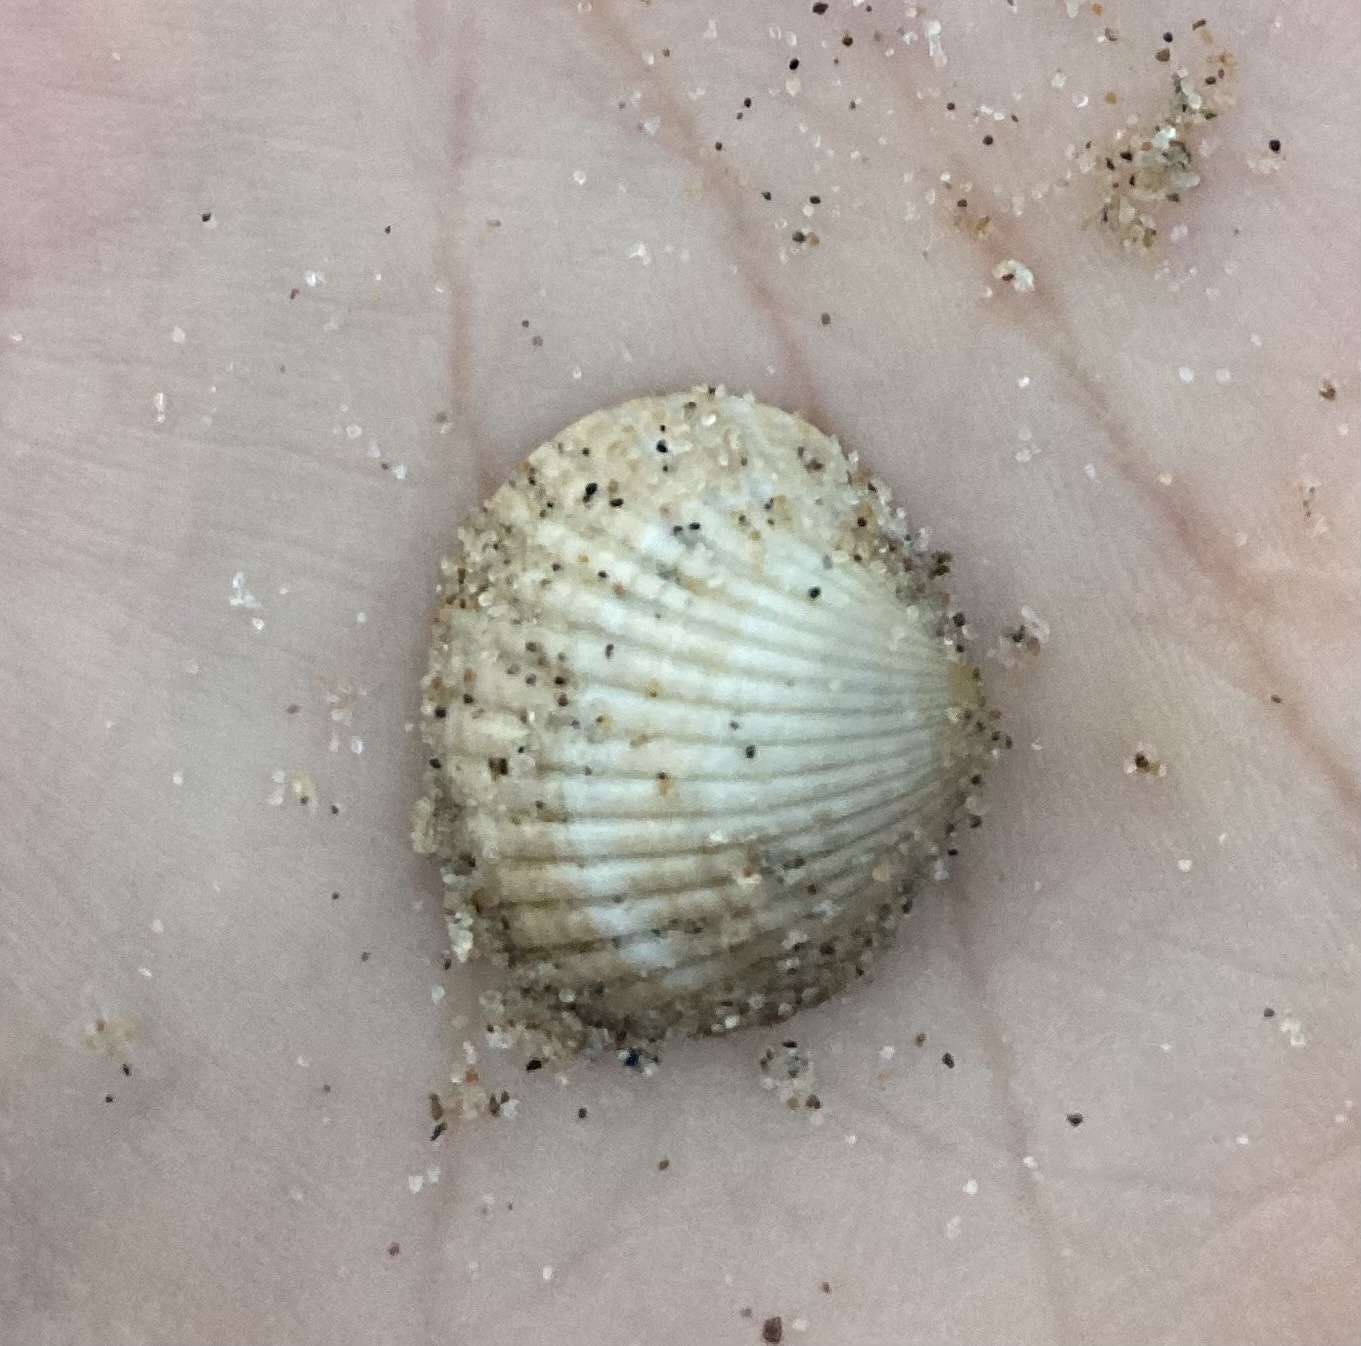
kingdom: Animalia
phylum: Mollusca
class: Bivalvia
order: Cardiida
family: Cardiidae
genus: Cerastoderma
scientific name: Cerastoderma edule
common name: Common cockle
